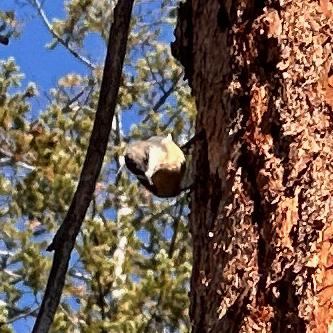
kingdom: Animalia
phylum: Chordata
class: Aves
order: Passeriformes
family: Sittidae
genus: Sitta
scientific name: Sitta pygmaea
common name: Pygmy nuthatch
